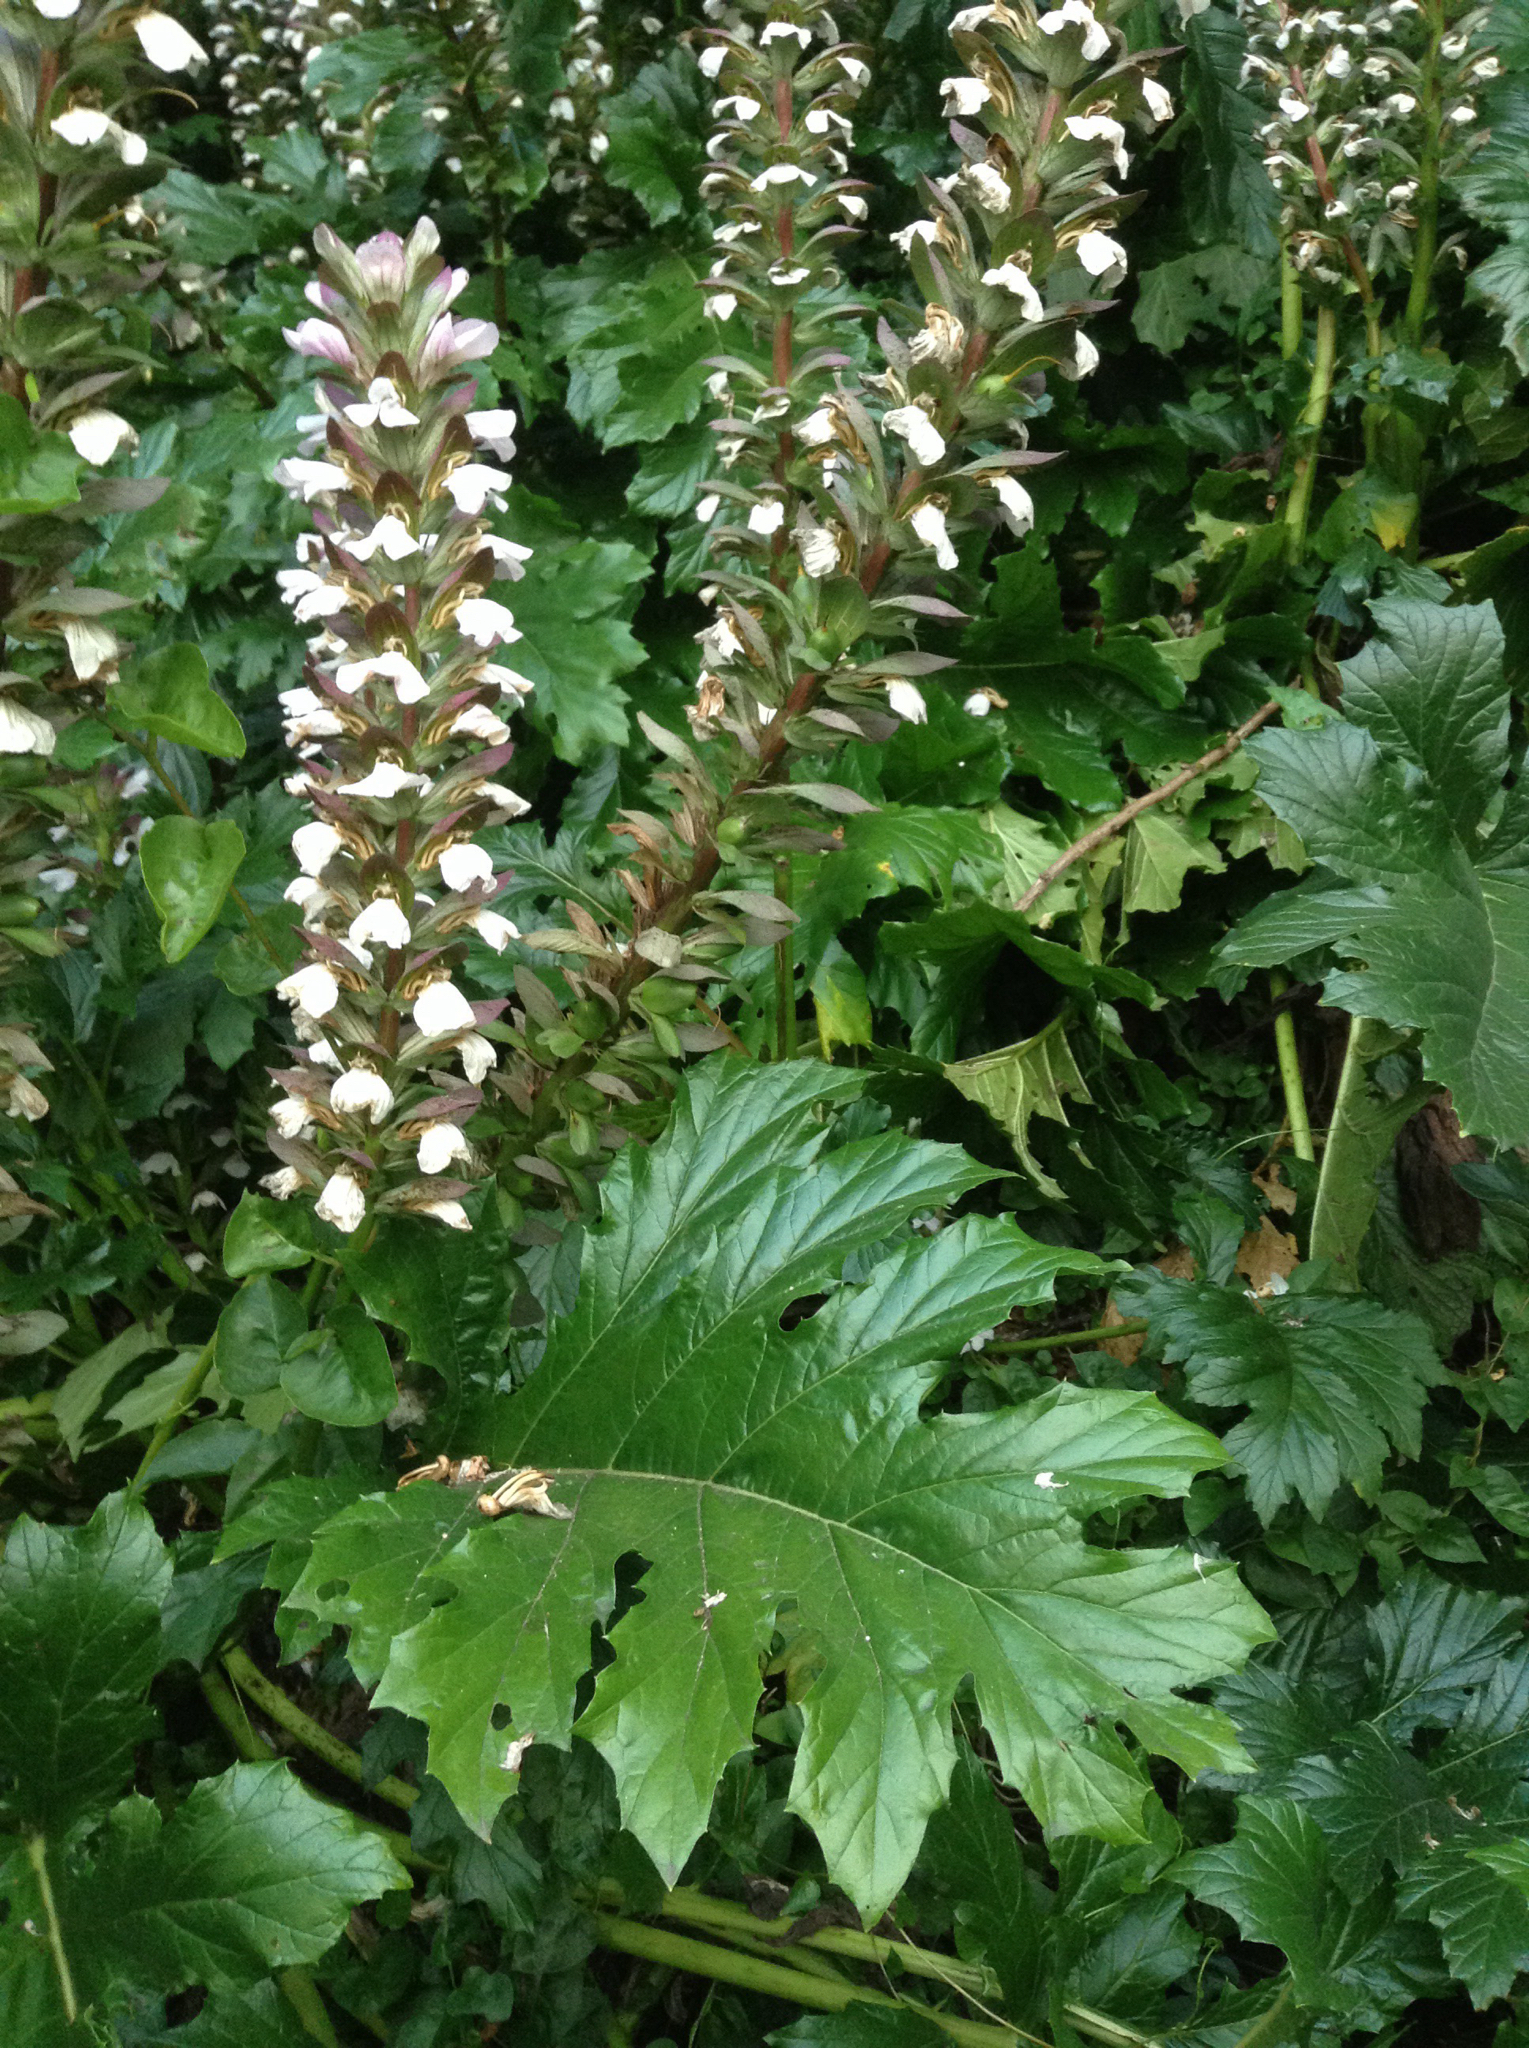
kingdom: Plantae
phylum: Tracheophyta
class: Magnoliopsida
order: Lamiales
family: Acanthaceae
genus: Acanthus
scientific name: Acanthus mollis
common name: Bear's-breech
